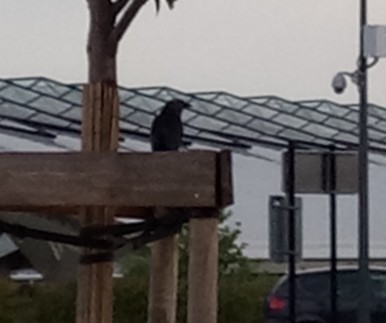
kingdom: Animalia
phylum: Chordata
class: Aves
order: Passeriformes
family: Corvidae
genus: Coloeus
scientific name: Coloeus monedula
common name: Western jackdaw
